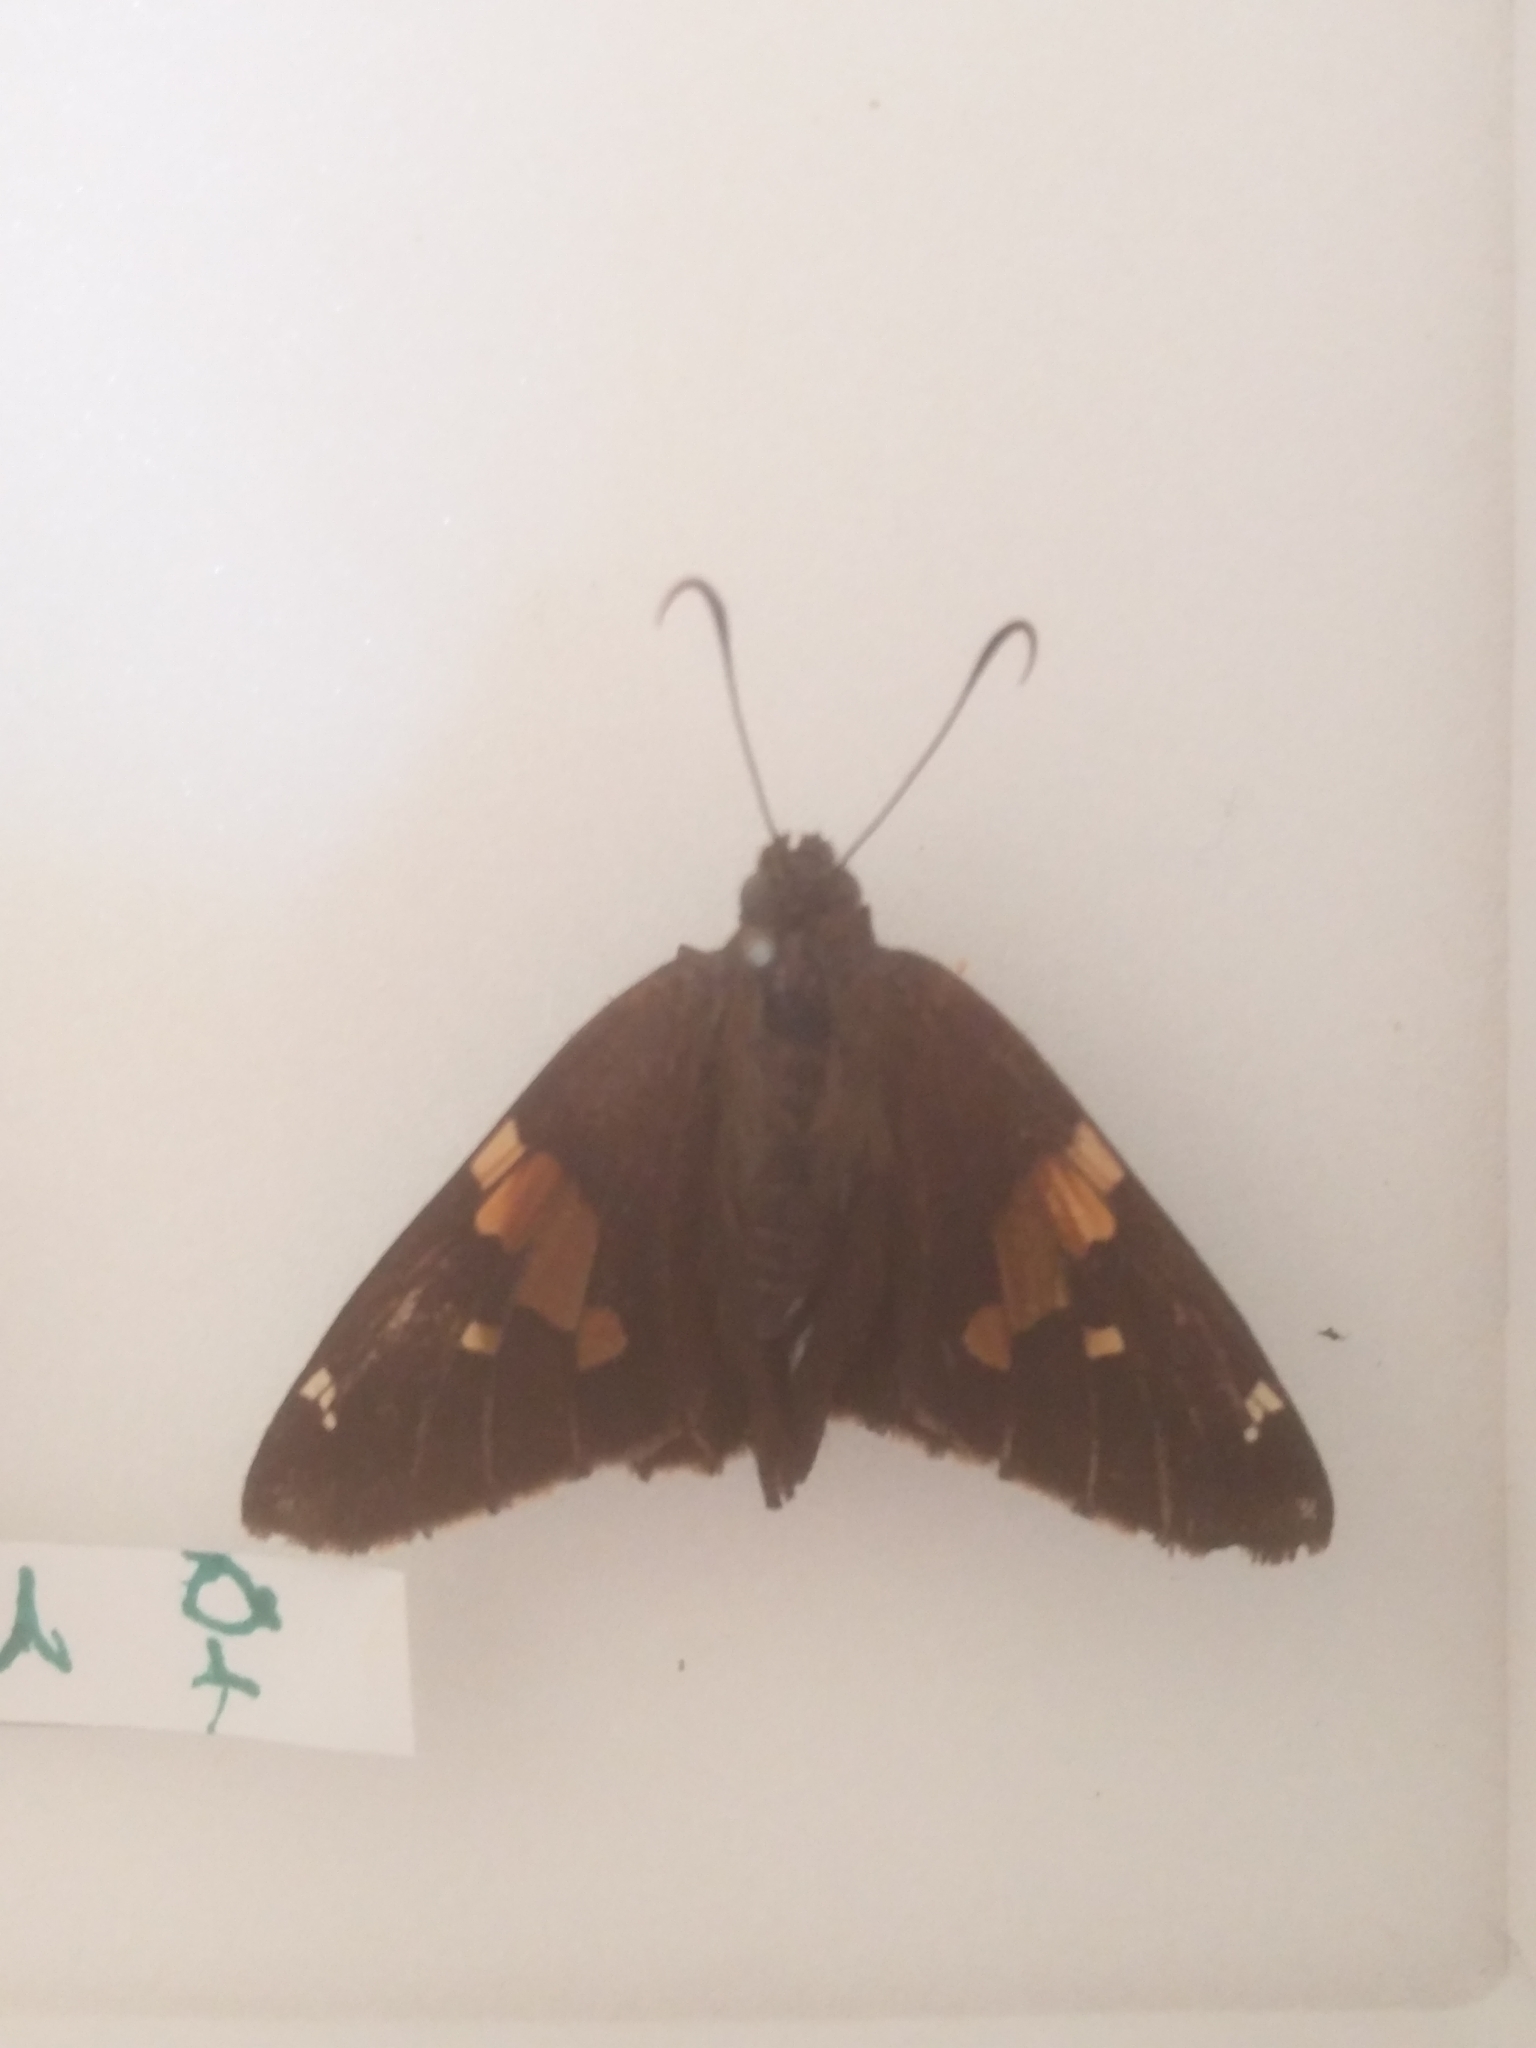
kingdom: Animalia
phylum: Arthropoda
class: Insecta
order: Lepidoptera
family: Hesperiidae
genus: Epargyreus
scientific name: Epargyreus clarus
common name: Silver-spotted skipper
